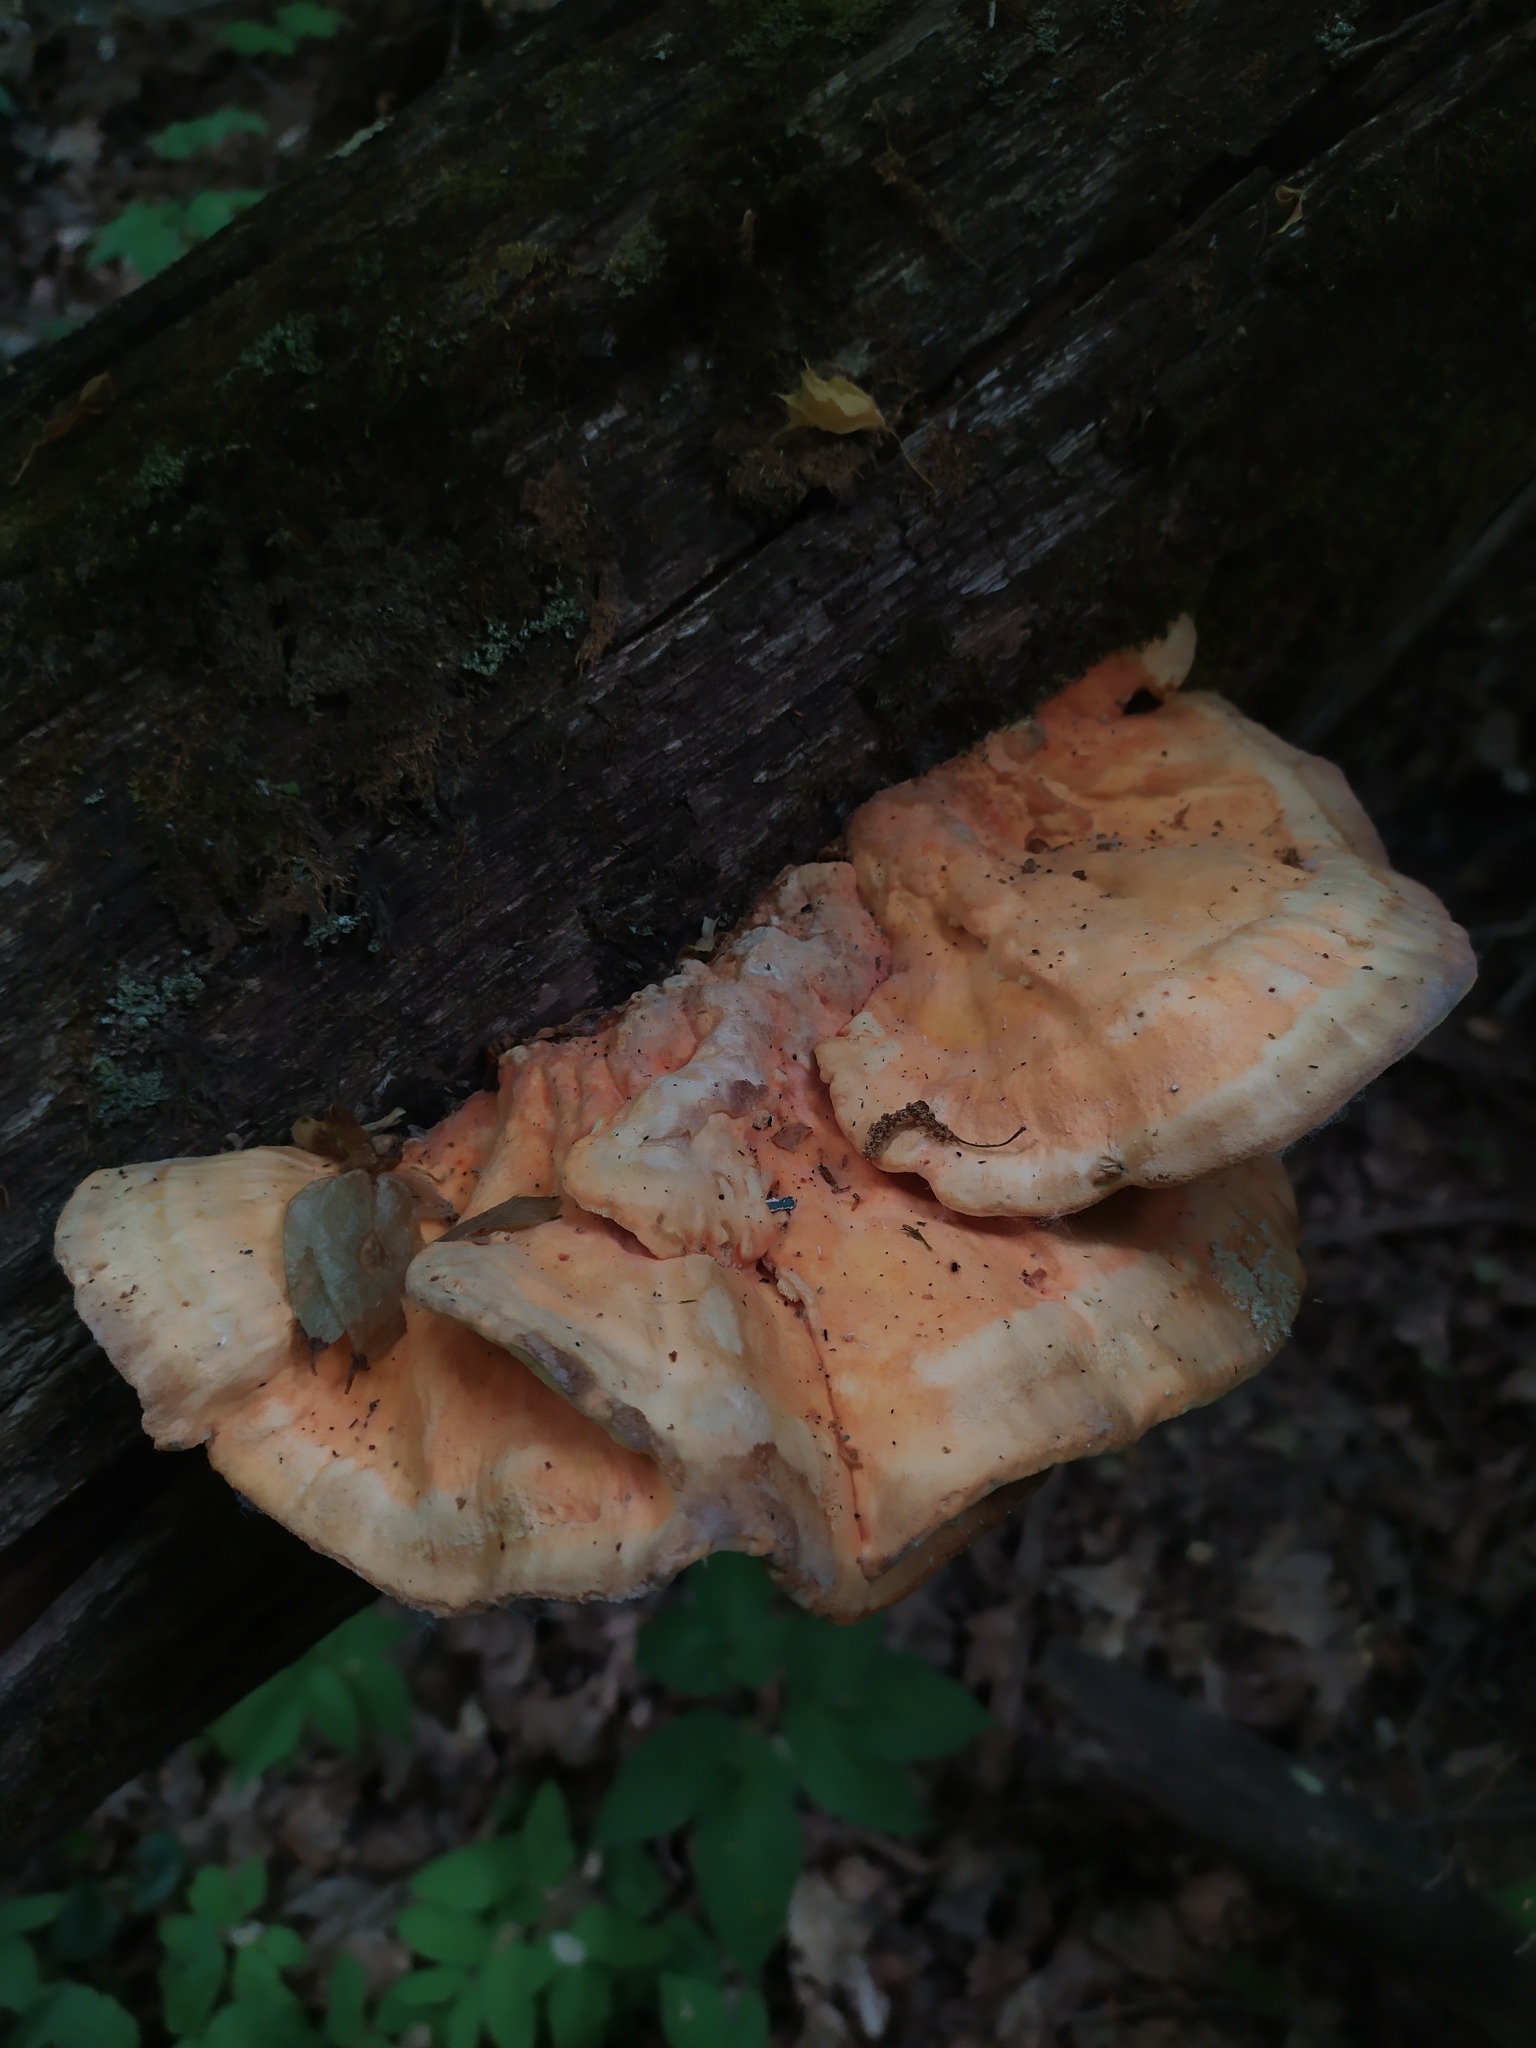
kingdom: Fungi
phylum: Basidiomycota
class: Agaricomycetes
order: Polyporales
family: Laetiporaceae
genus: Laetiporus
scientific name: Laetiporus sulphureus
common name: Chicken of the woods
